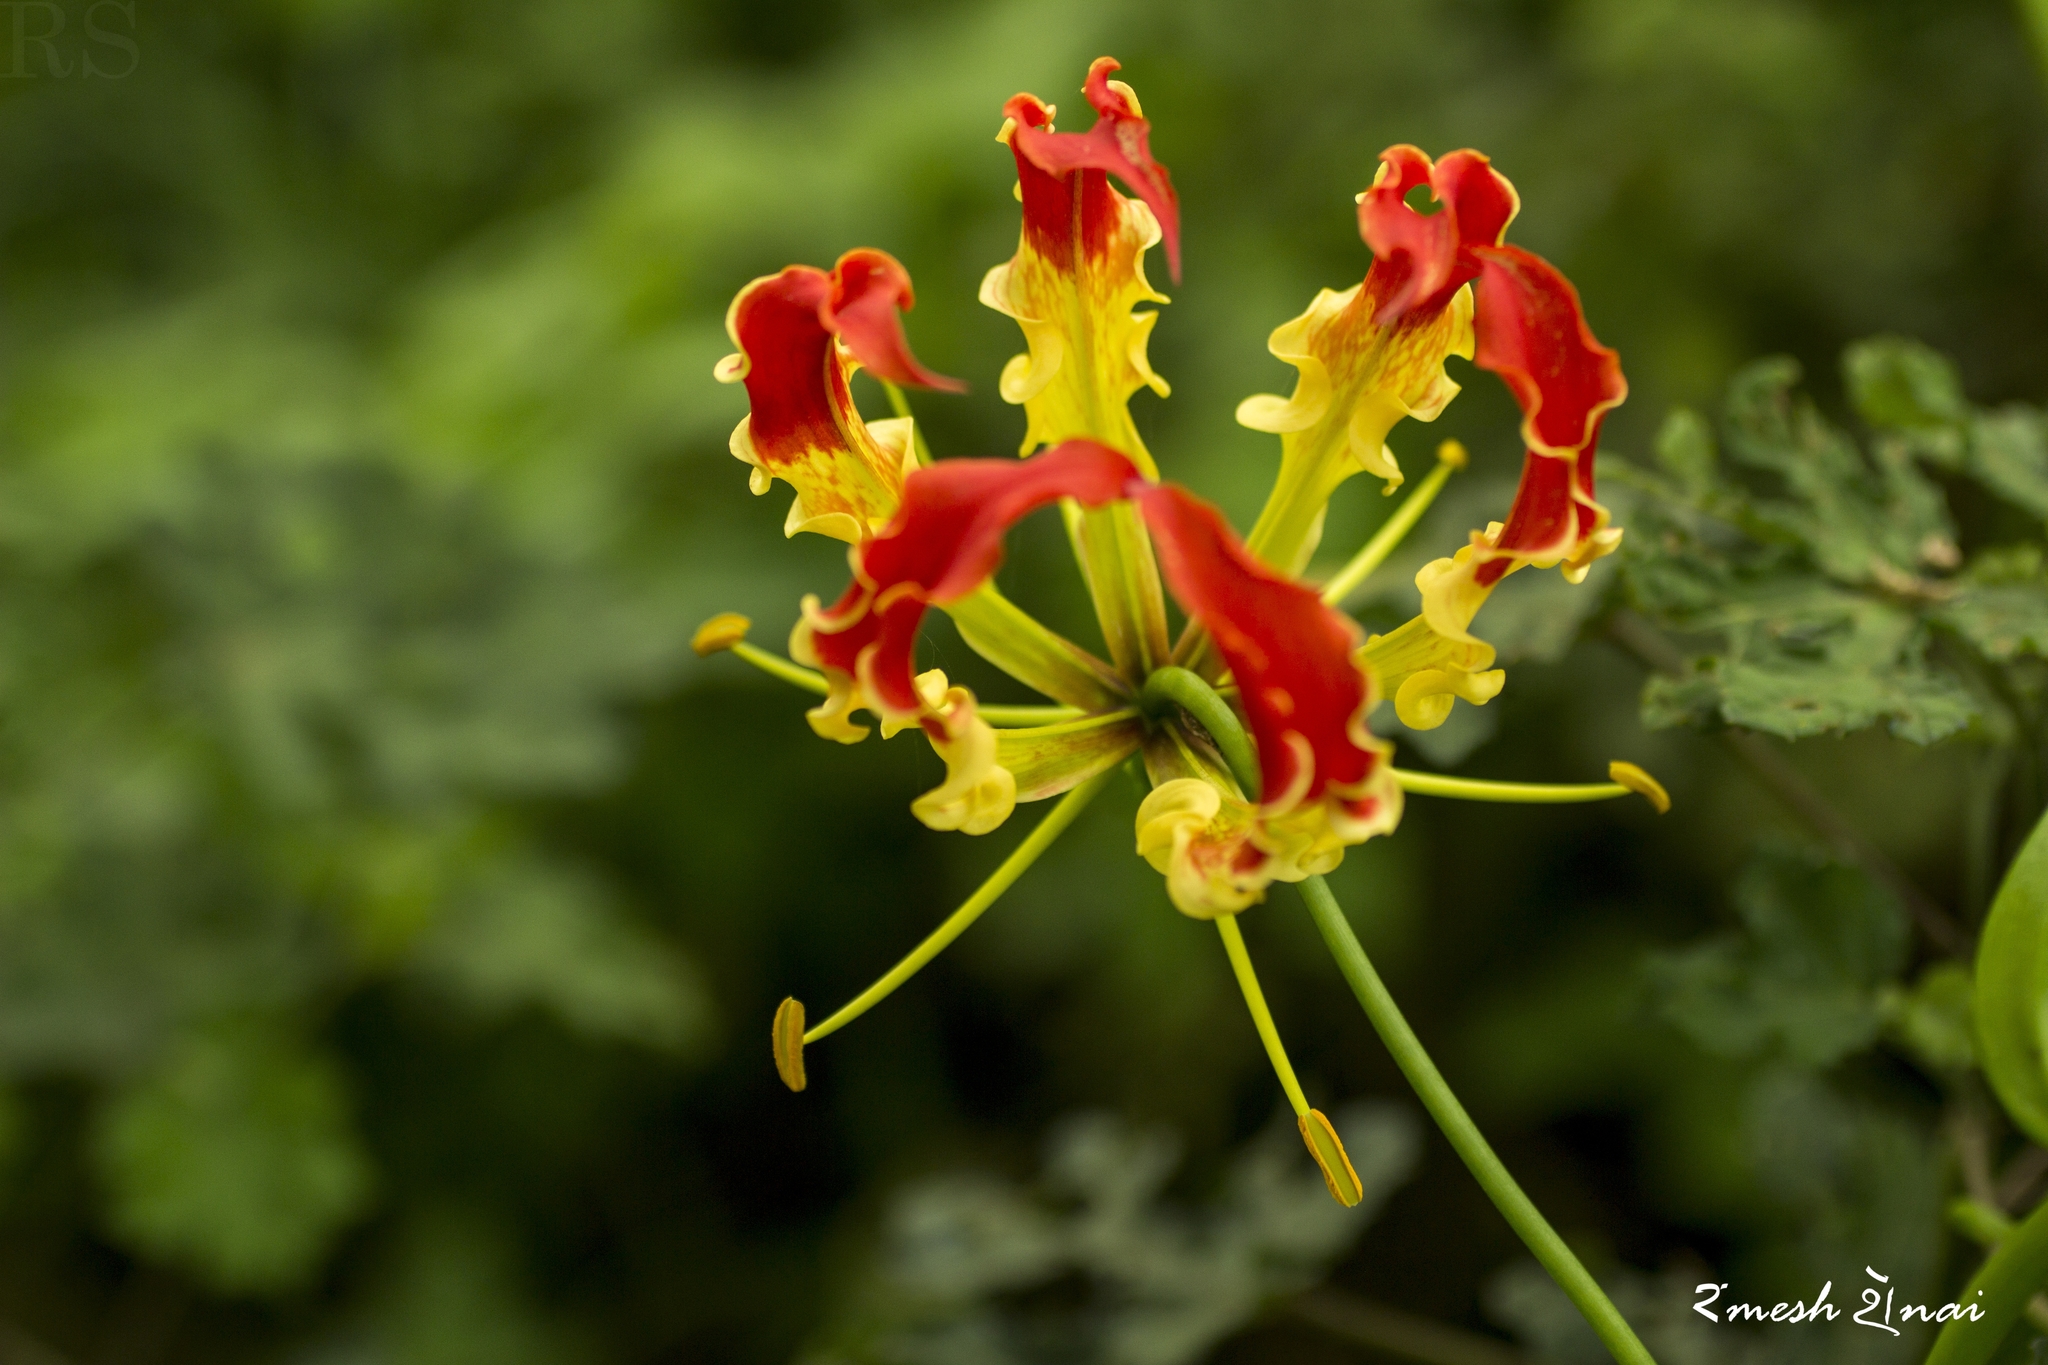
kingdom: Plantae
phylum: Tracheophyta
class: Liliopsida
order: Liliales
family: Colchicaceae
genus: Gloriosa
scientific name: Gloriosa superba
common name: Flame lily
